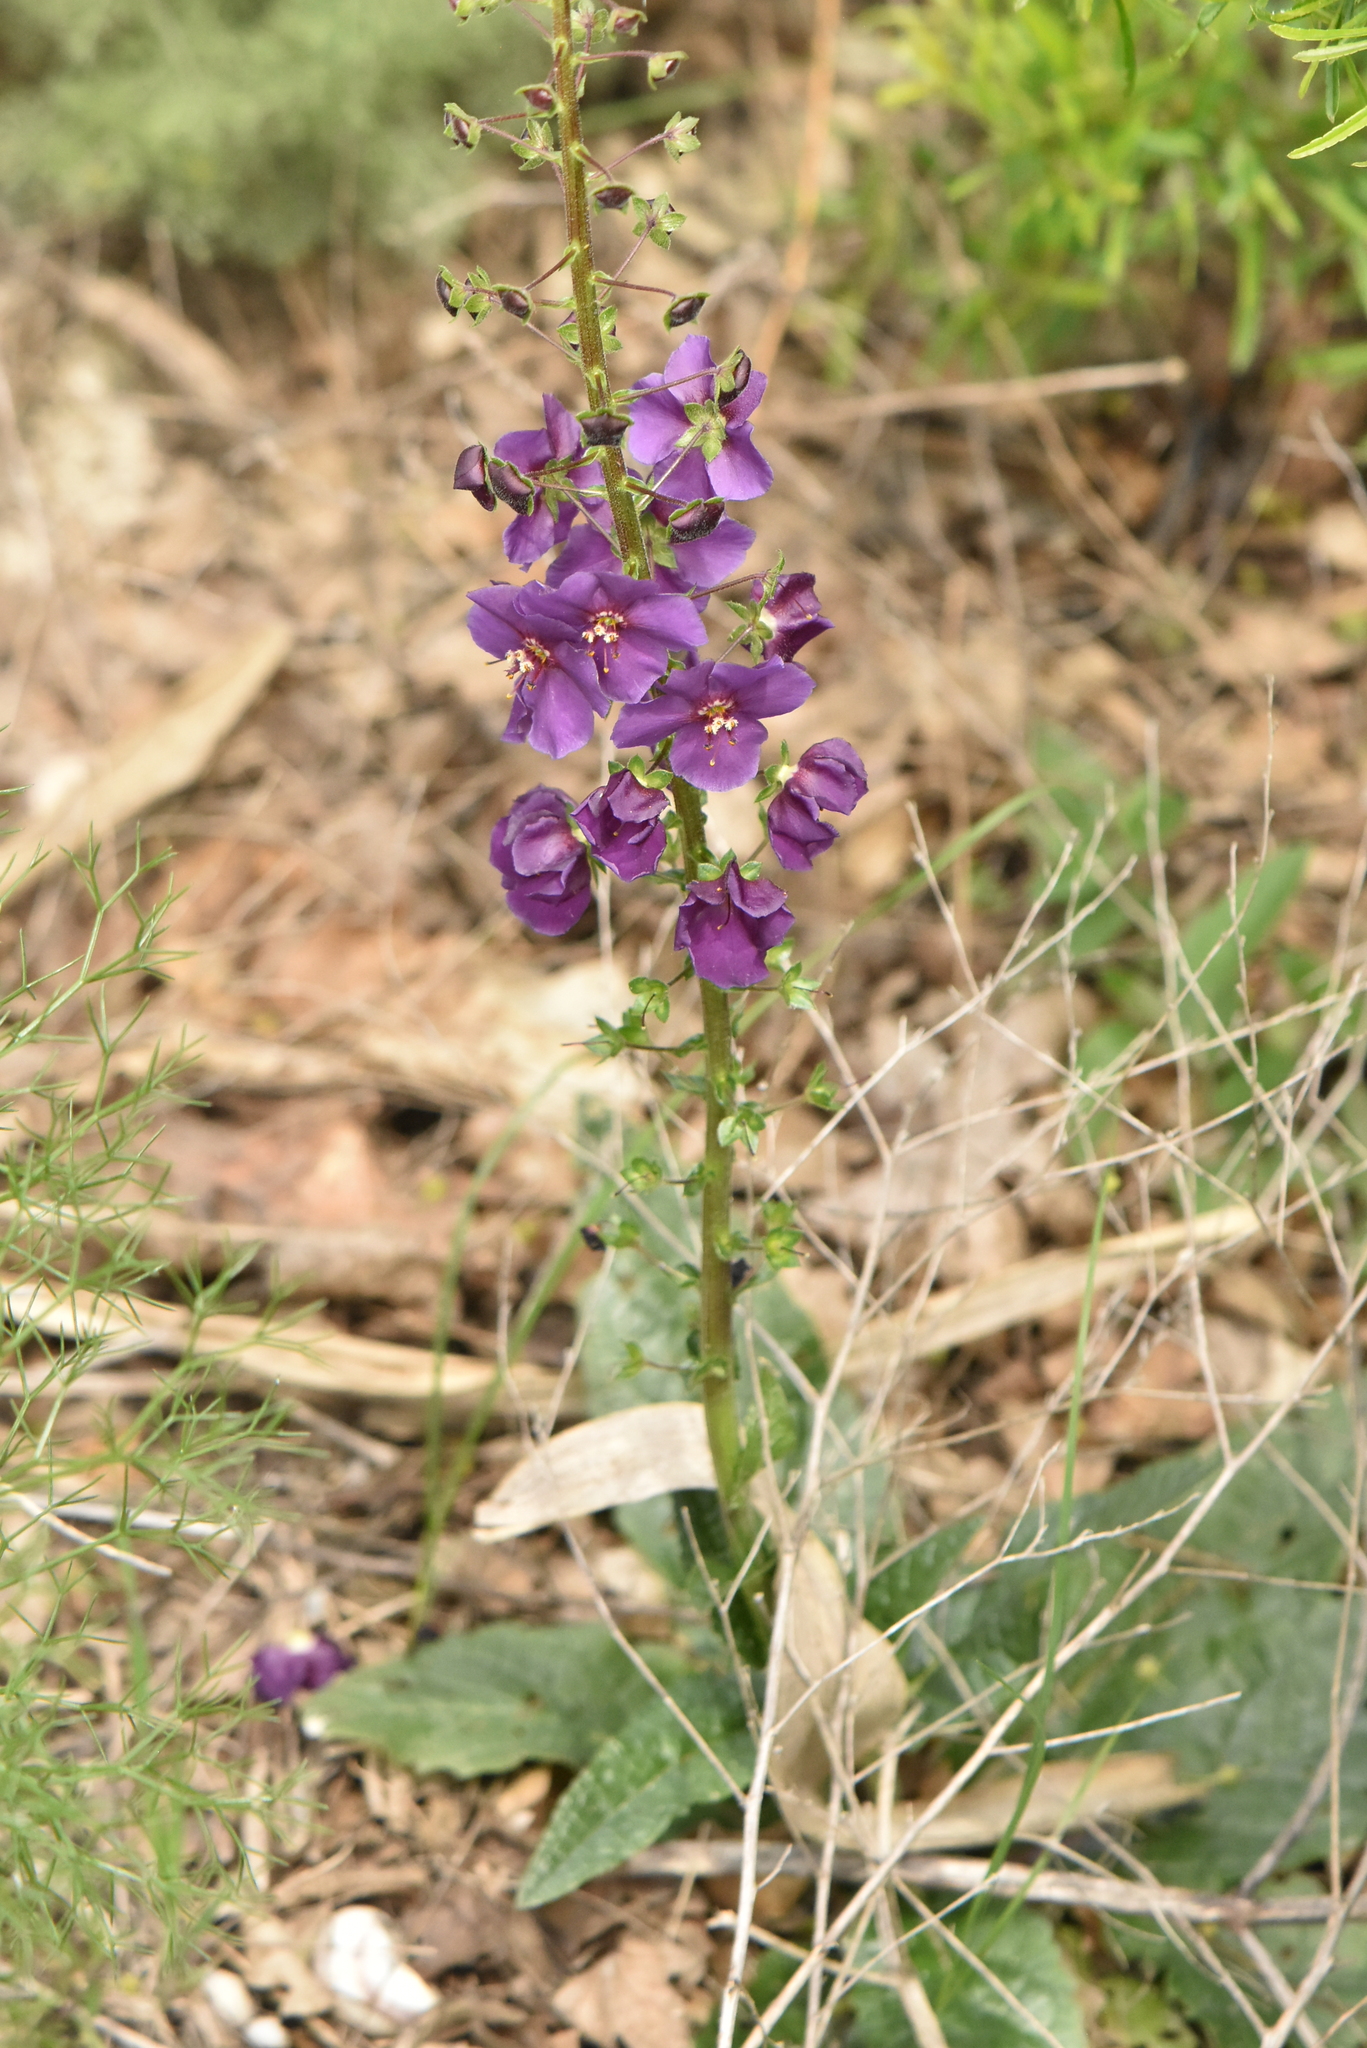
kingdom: Plantae
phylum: Tracheophyta
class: Magnoliopsida
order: Lamiales
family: Scrophulariaceae
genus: Verbascum
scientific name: Verbascum phoeniceum
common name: Purple mullein
